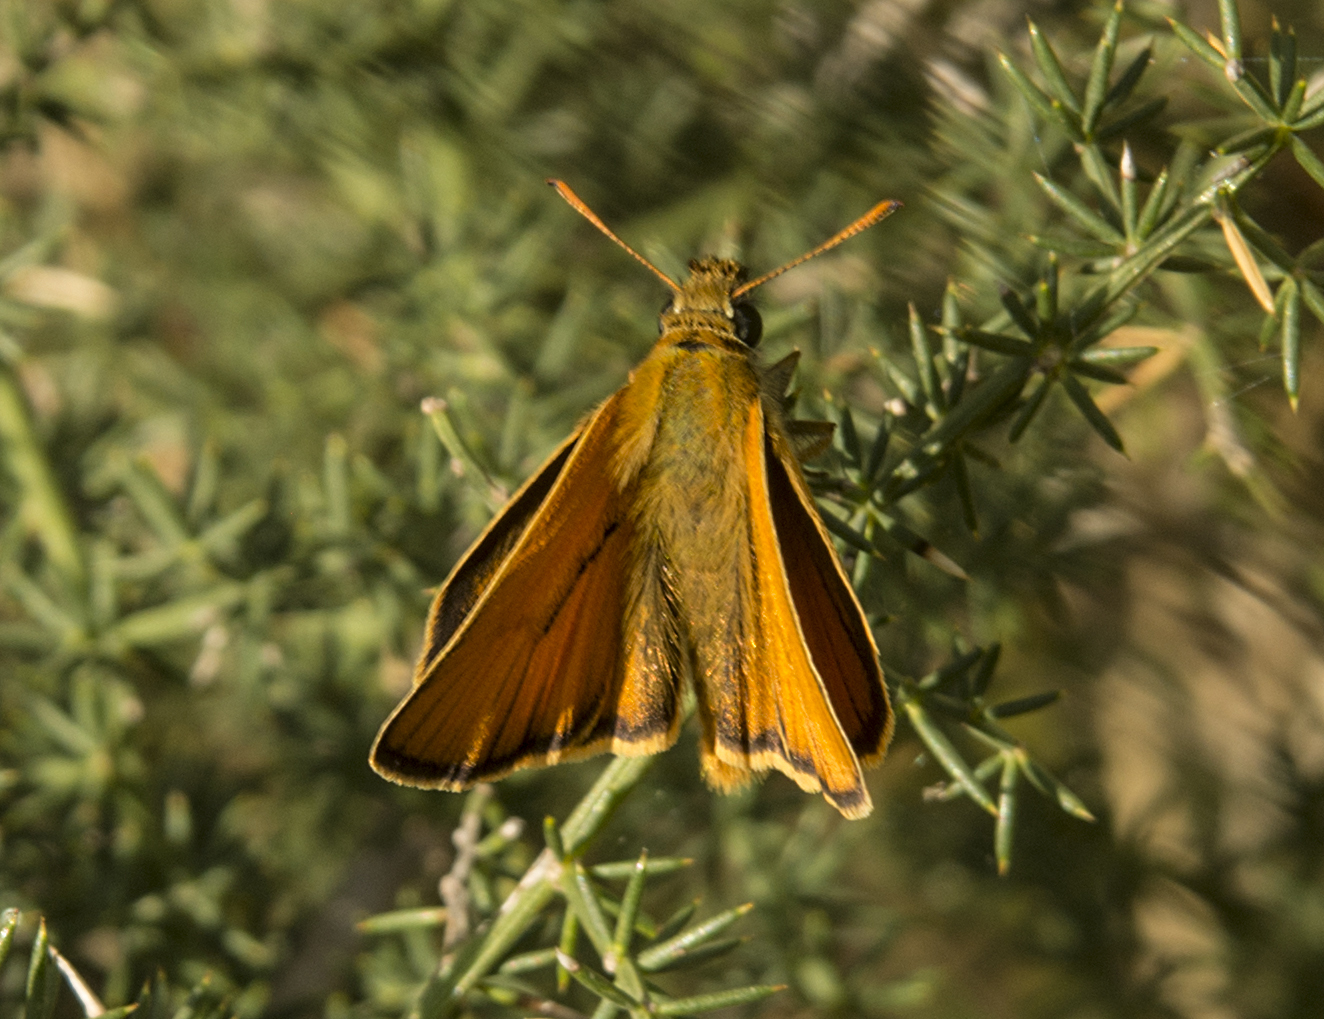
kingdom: Animalia
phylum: Arthropoda
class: Insecta
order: Lepidoptera
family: Hesperiidae
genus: Thymelicus
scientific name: Thymelicus sylvestris
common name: Small skipper
